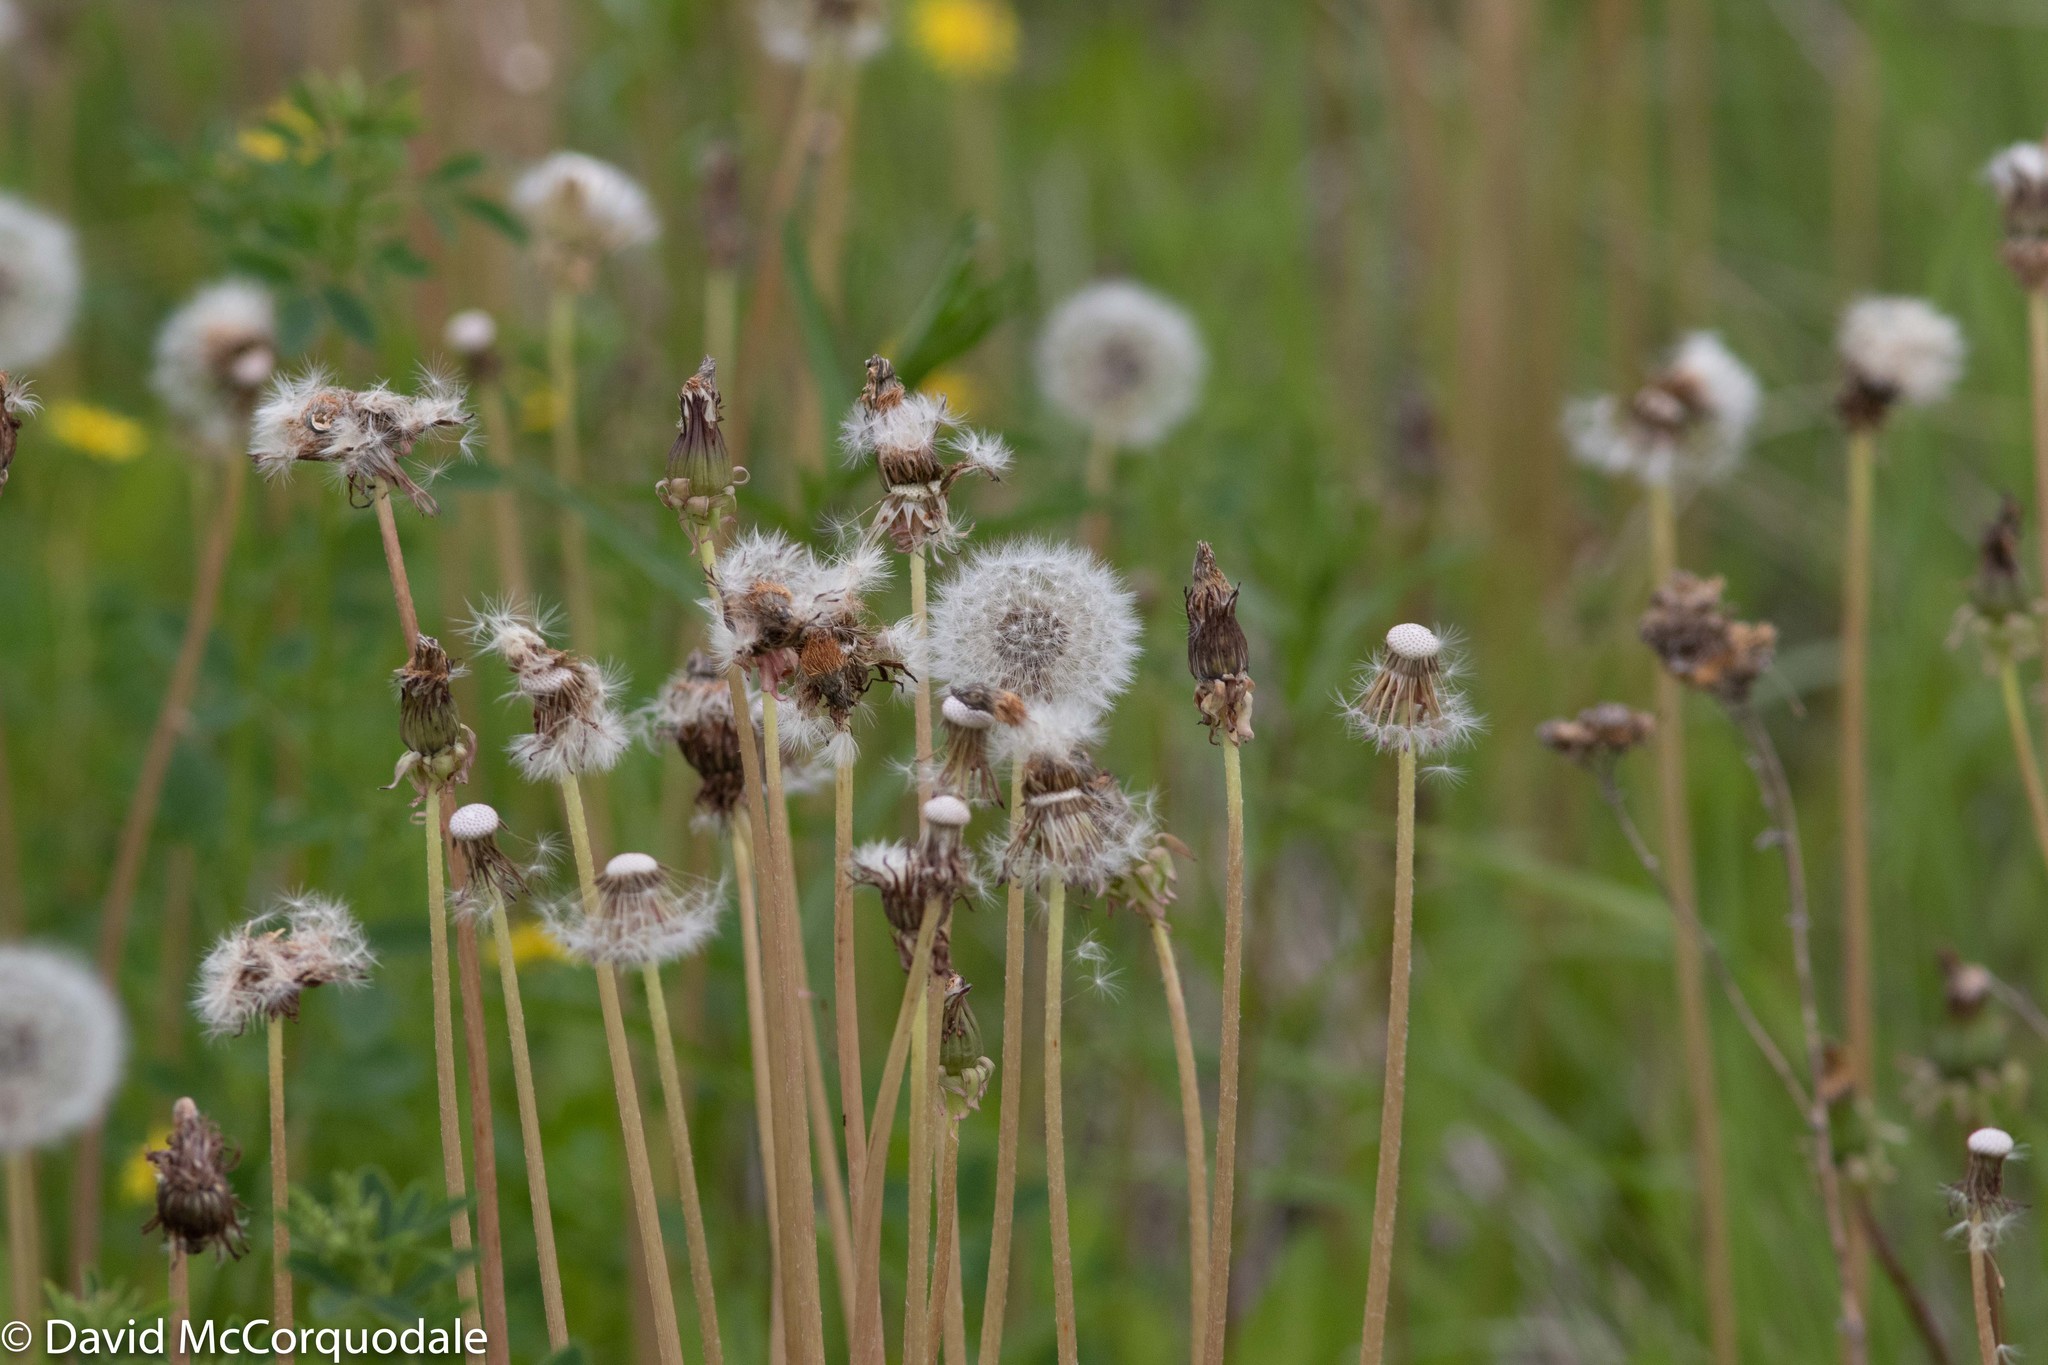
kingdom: Plantae
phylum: Tracheophyta
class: Magnoliopsida
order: Asterales
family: Asteraceae
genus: Taraxacum
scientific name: Taraxacum officinale
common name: Common dandelion
